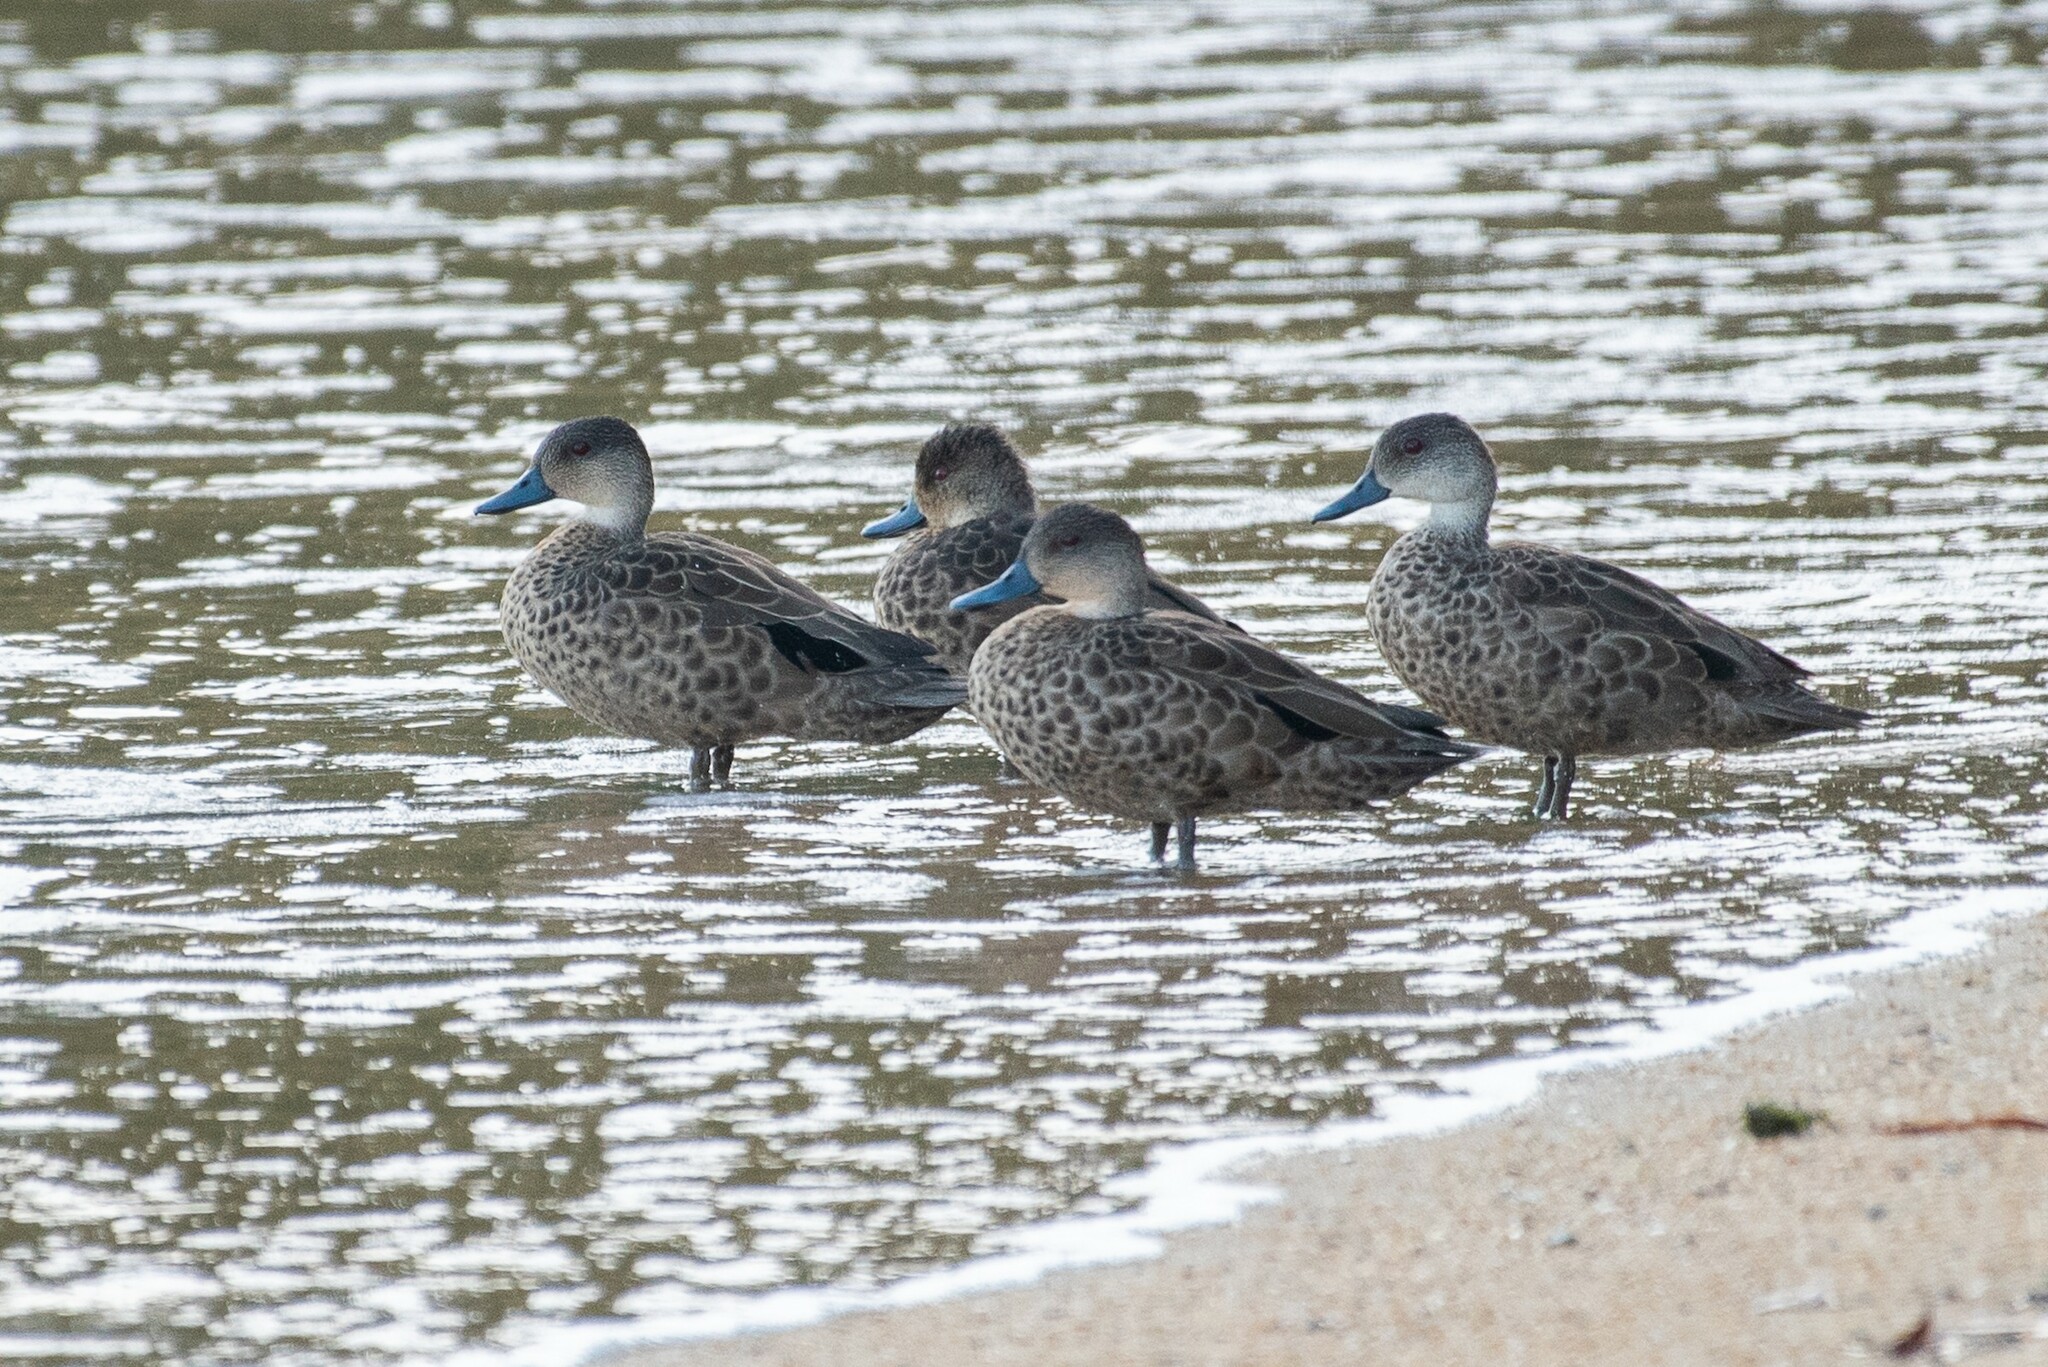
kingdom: Animalia
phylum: Chordata
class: Aves
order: Anseriformes
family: Anatidae
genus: Anas
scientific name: Anas gracilis
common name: Grey teal
